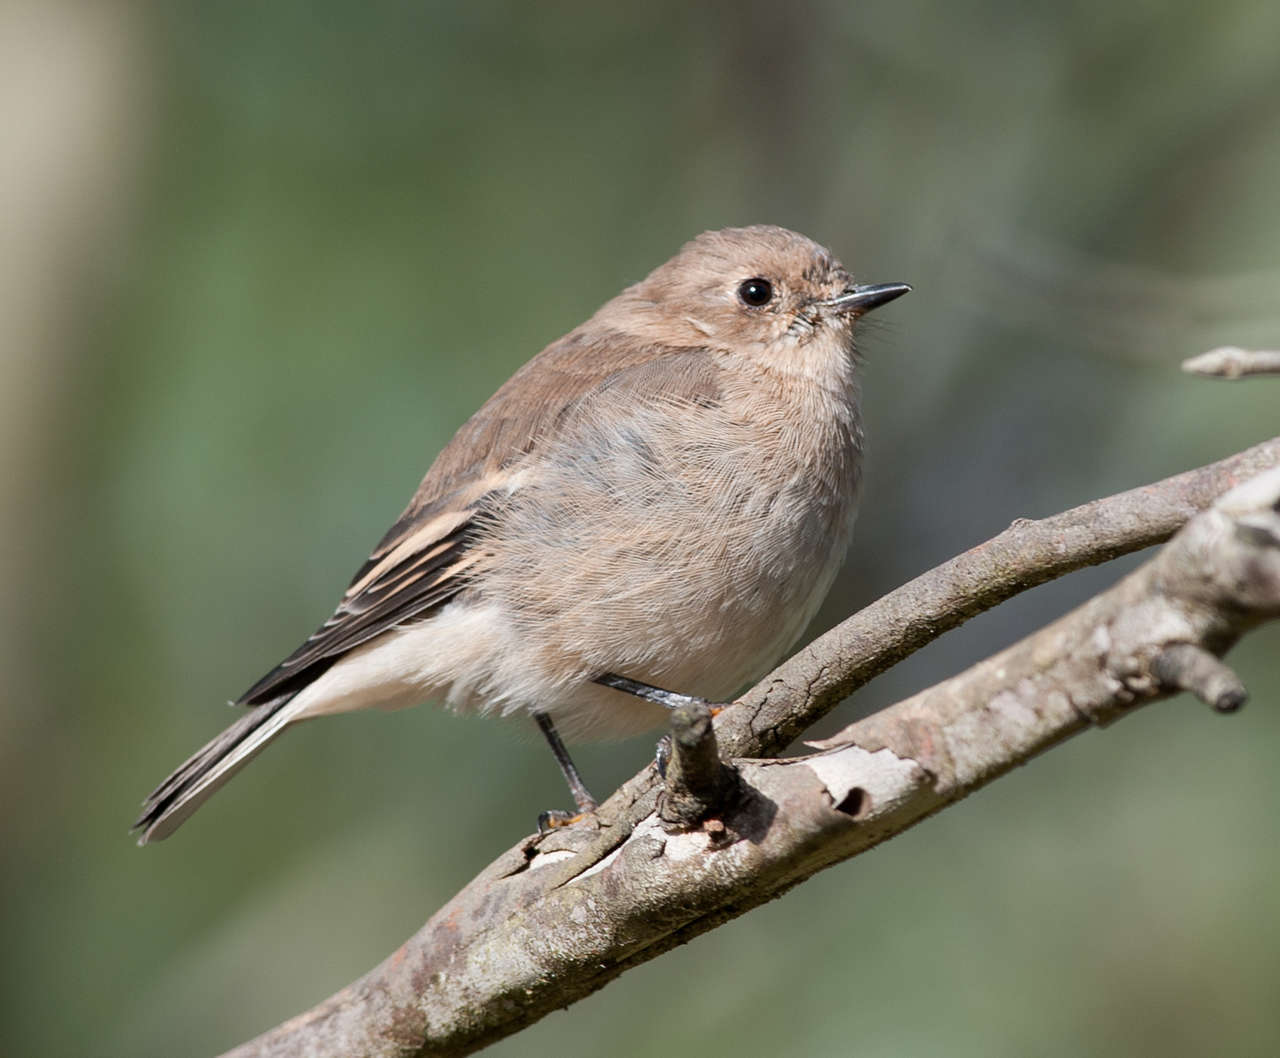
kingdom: Animalia
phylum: Chordata
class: Aves
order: Passeriformes
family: Petroicidae
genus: Petroica
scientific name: Petroica phoenicea
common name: Flame robin
